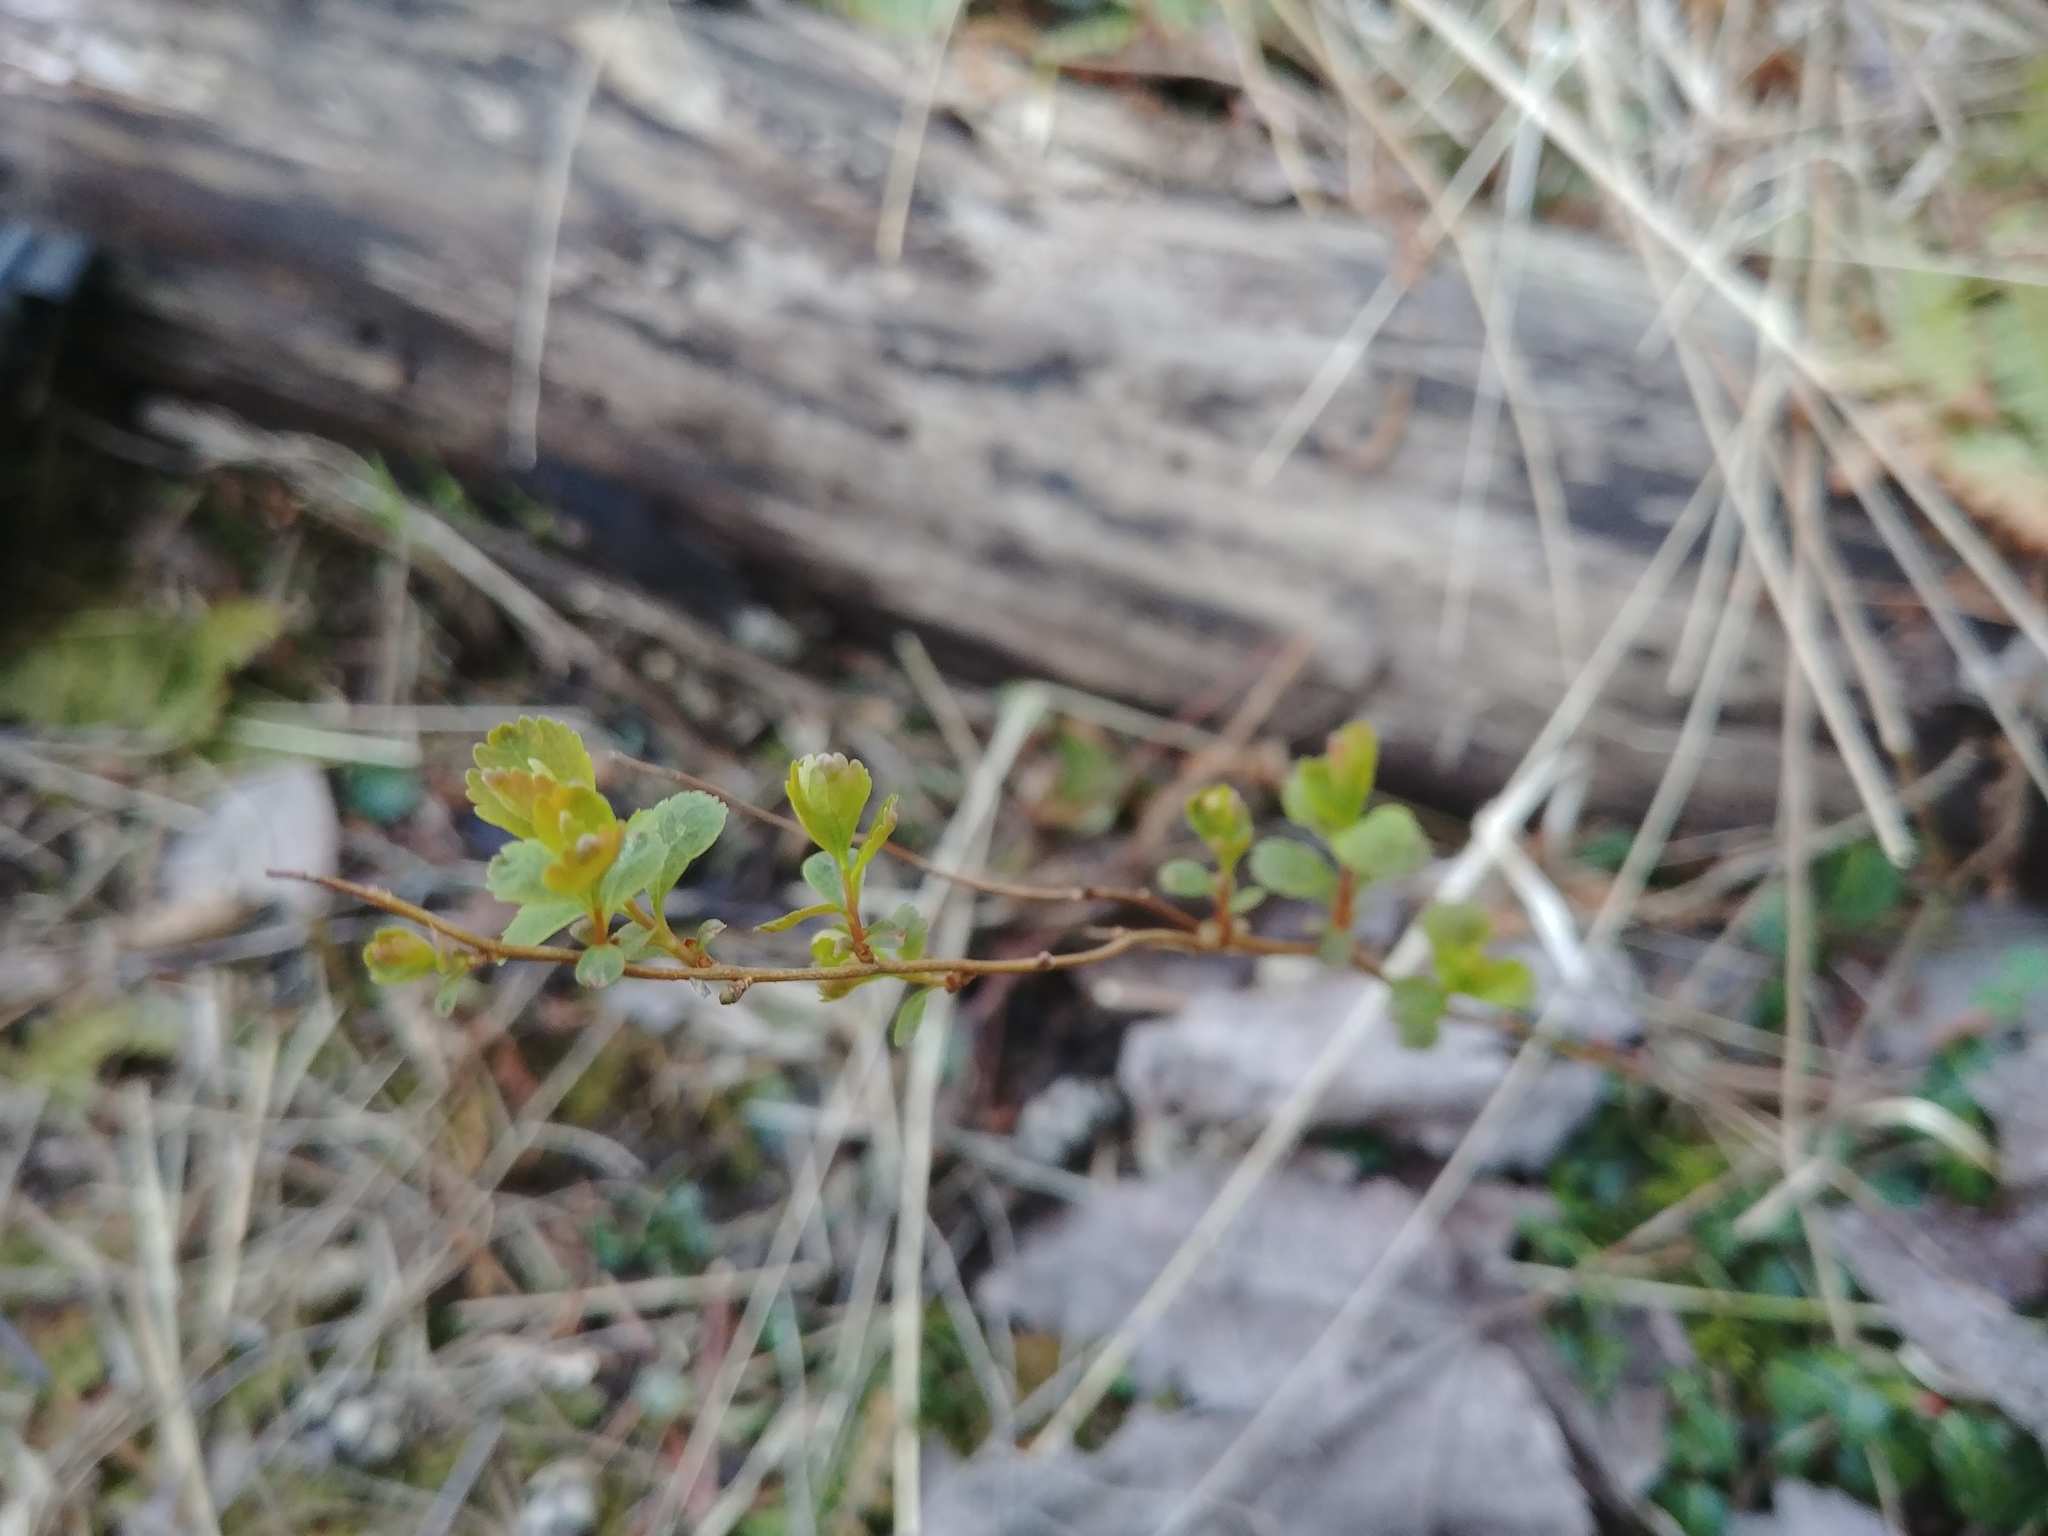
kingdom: Plantae
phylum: Tracheophyta
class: Magnoliopsida
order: Rosales
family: Rosaceae
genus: Spiraea
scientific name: Spiraea alba
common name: Pale bridewort
